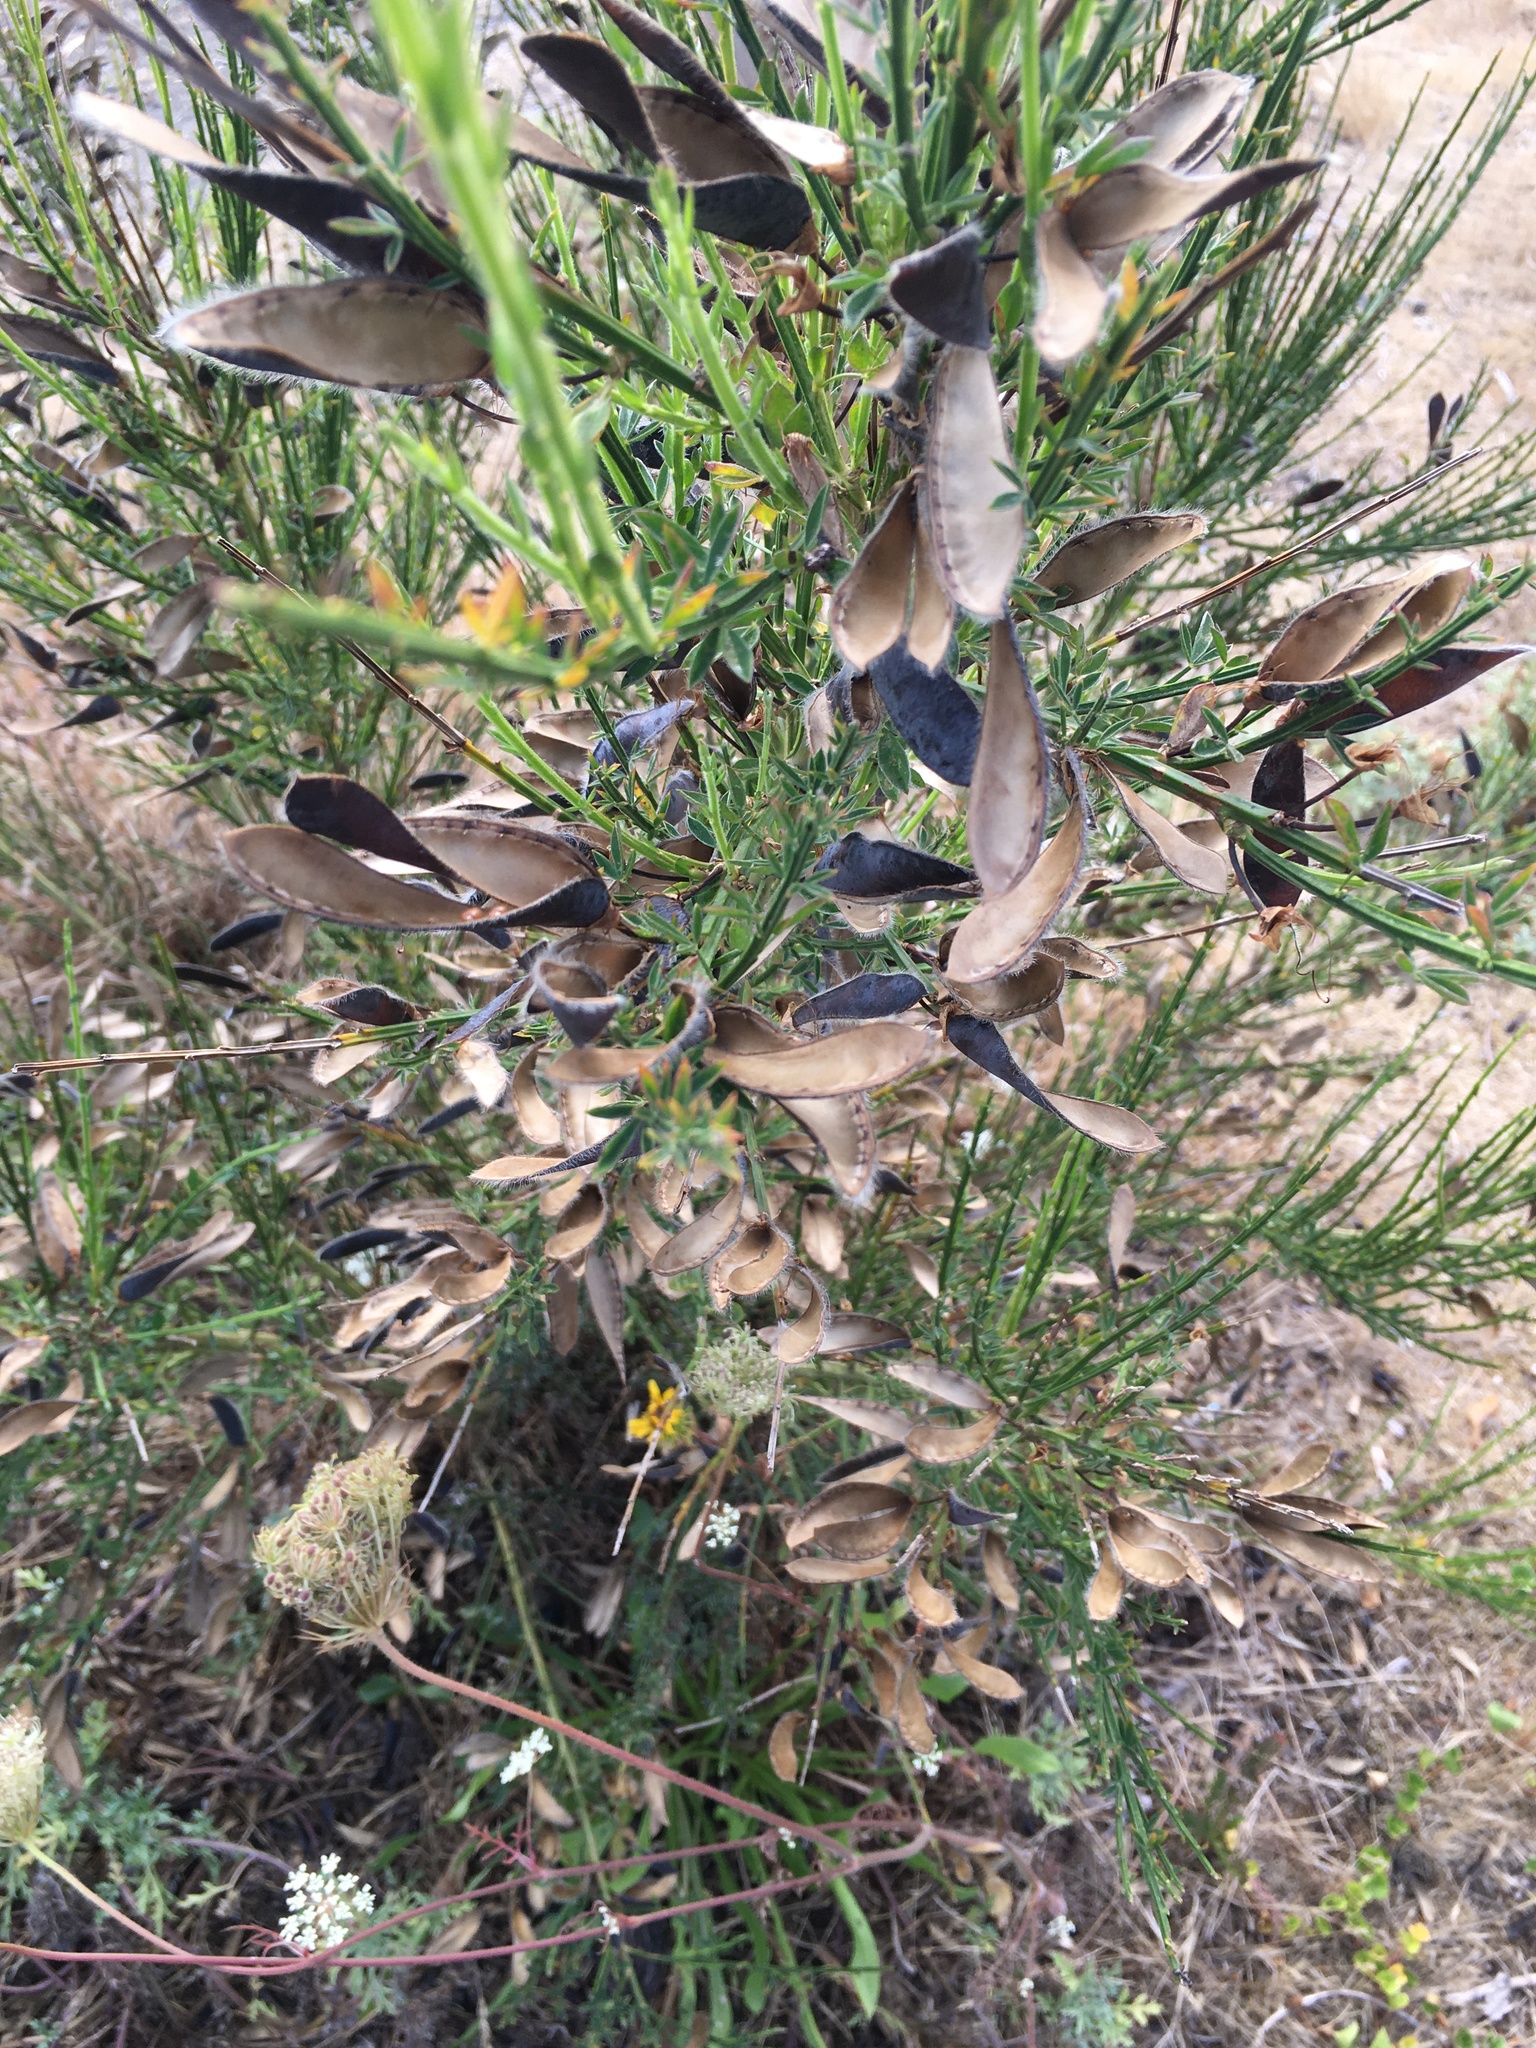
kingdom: Plantae
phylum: Tracheophyta
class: Magnoliopsida
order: Fabales
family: Fabaceae
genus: Cytisus
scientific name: Cytisus scoparius
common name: Scotch broom
